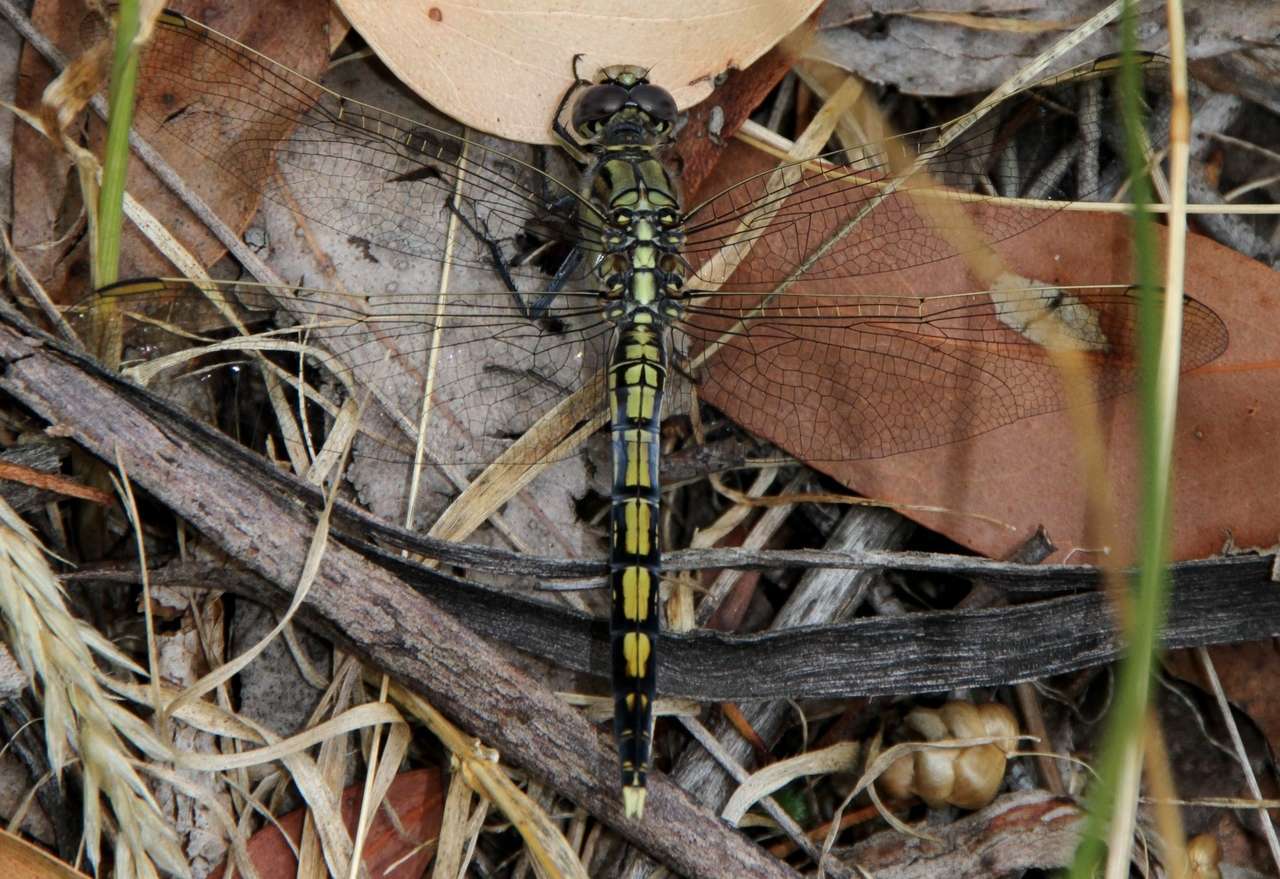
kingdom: Animalia
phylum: Arthropoda
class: Insecta
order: Odonata
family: Libellulidae
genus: Orthetrum
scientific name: Orthetrum caledonicum
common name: Blue skimmer
